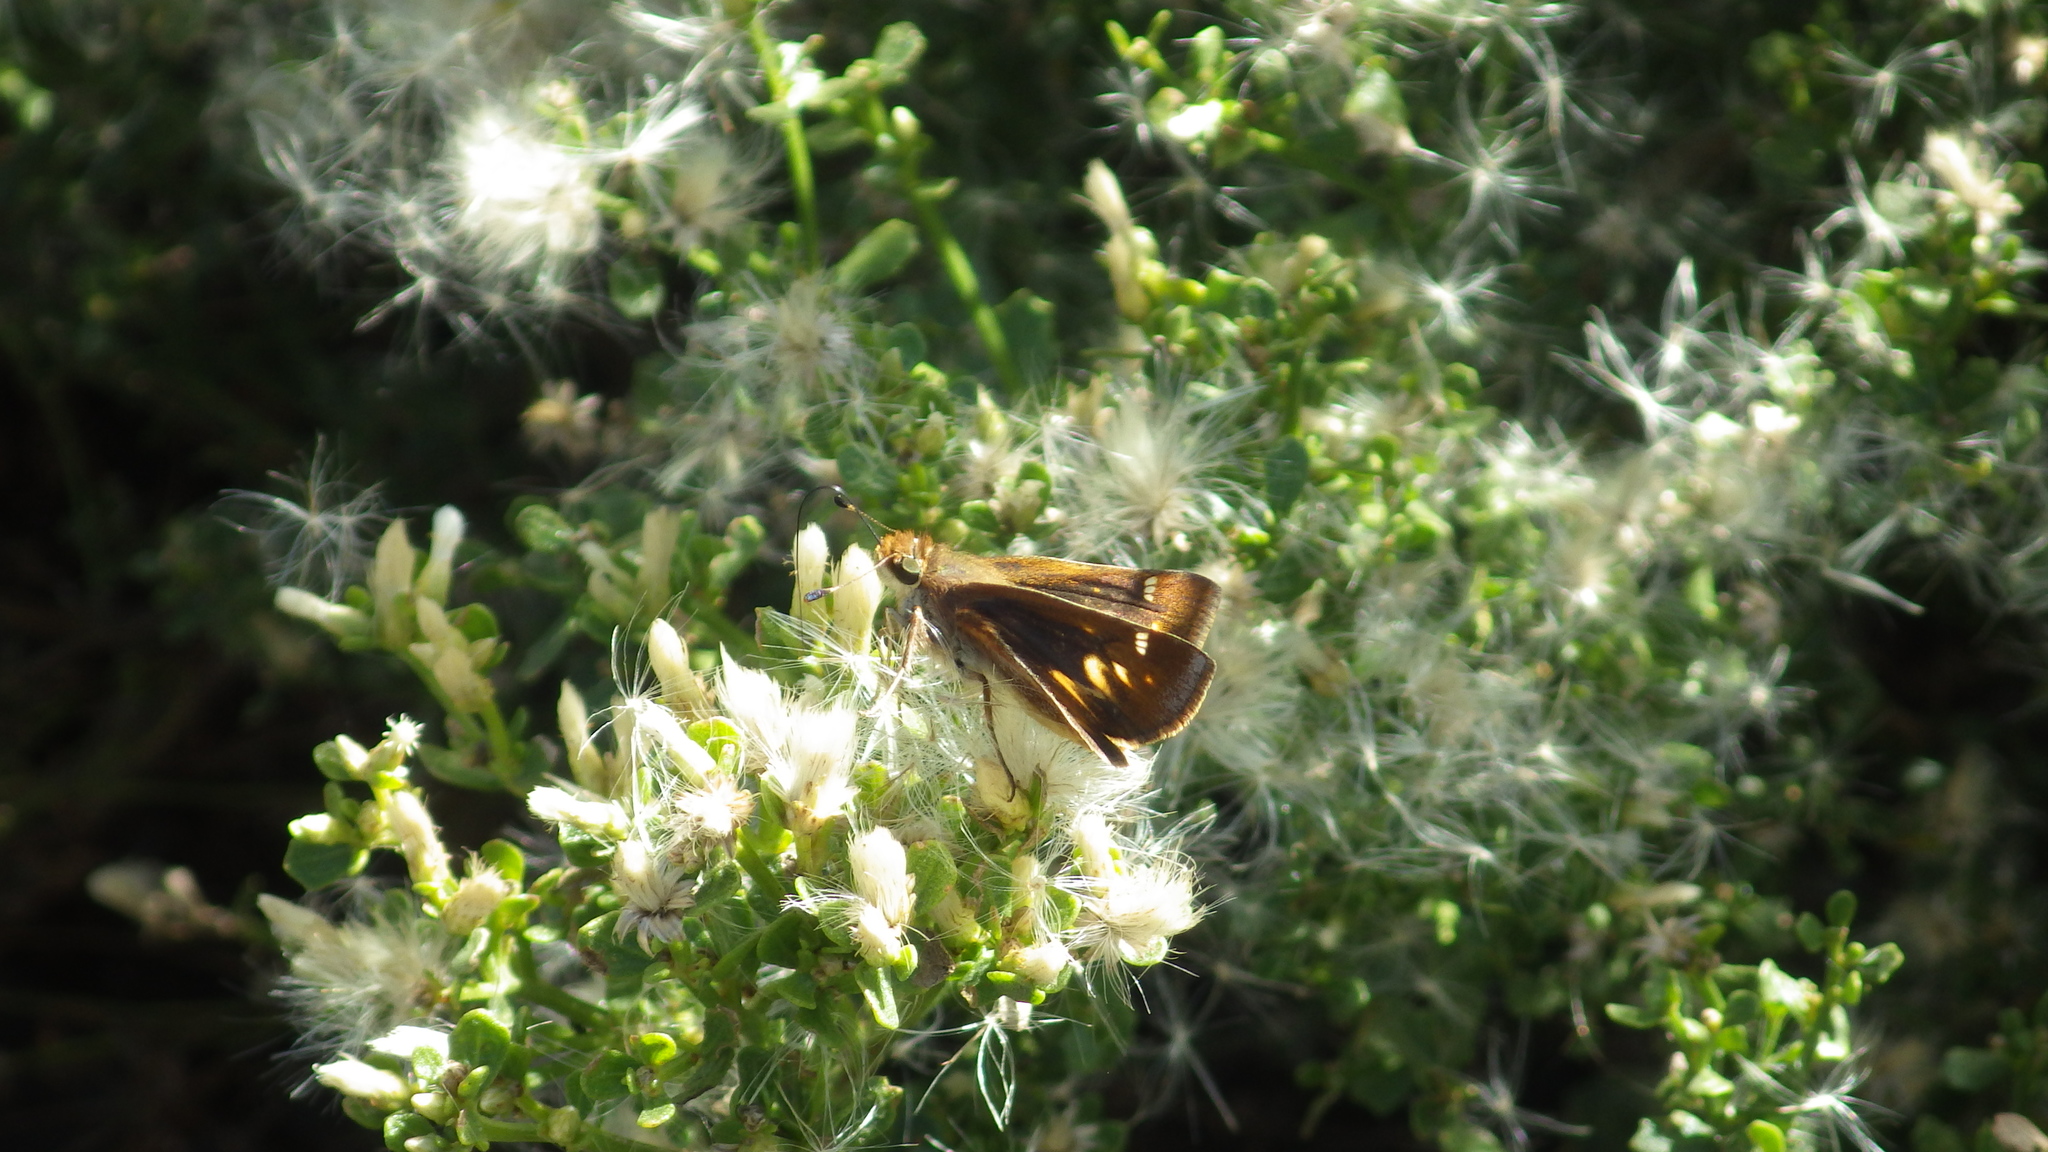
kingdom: Animalia
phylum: Arthropoda
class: Insecta
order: Lepidoptera
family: Hesperiidae
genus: Lon
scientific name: Lon melane
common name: Umber skipper
